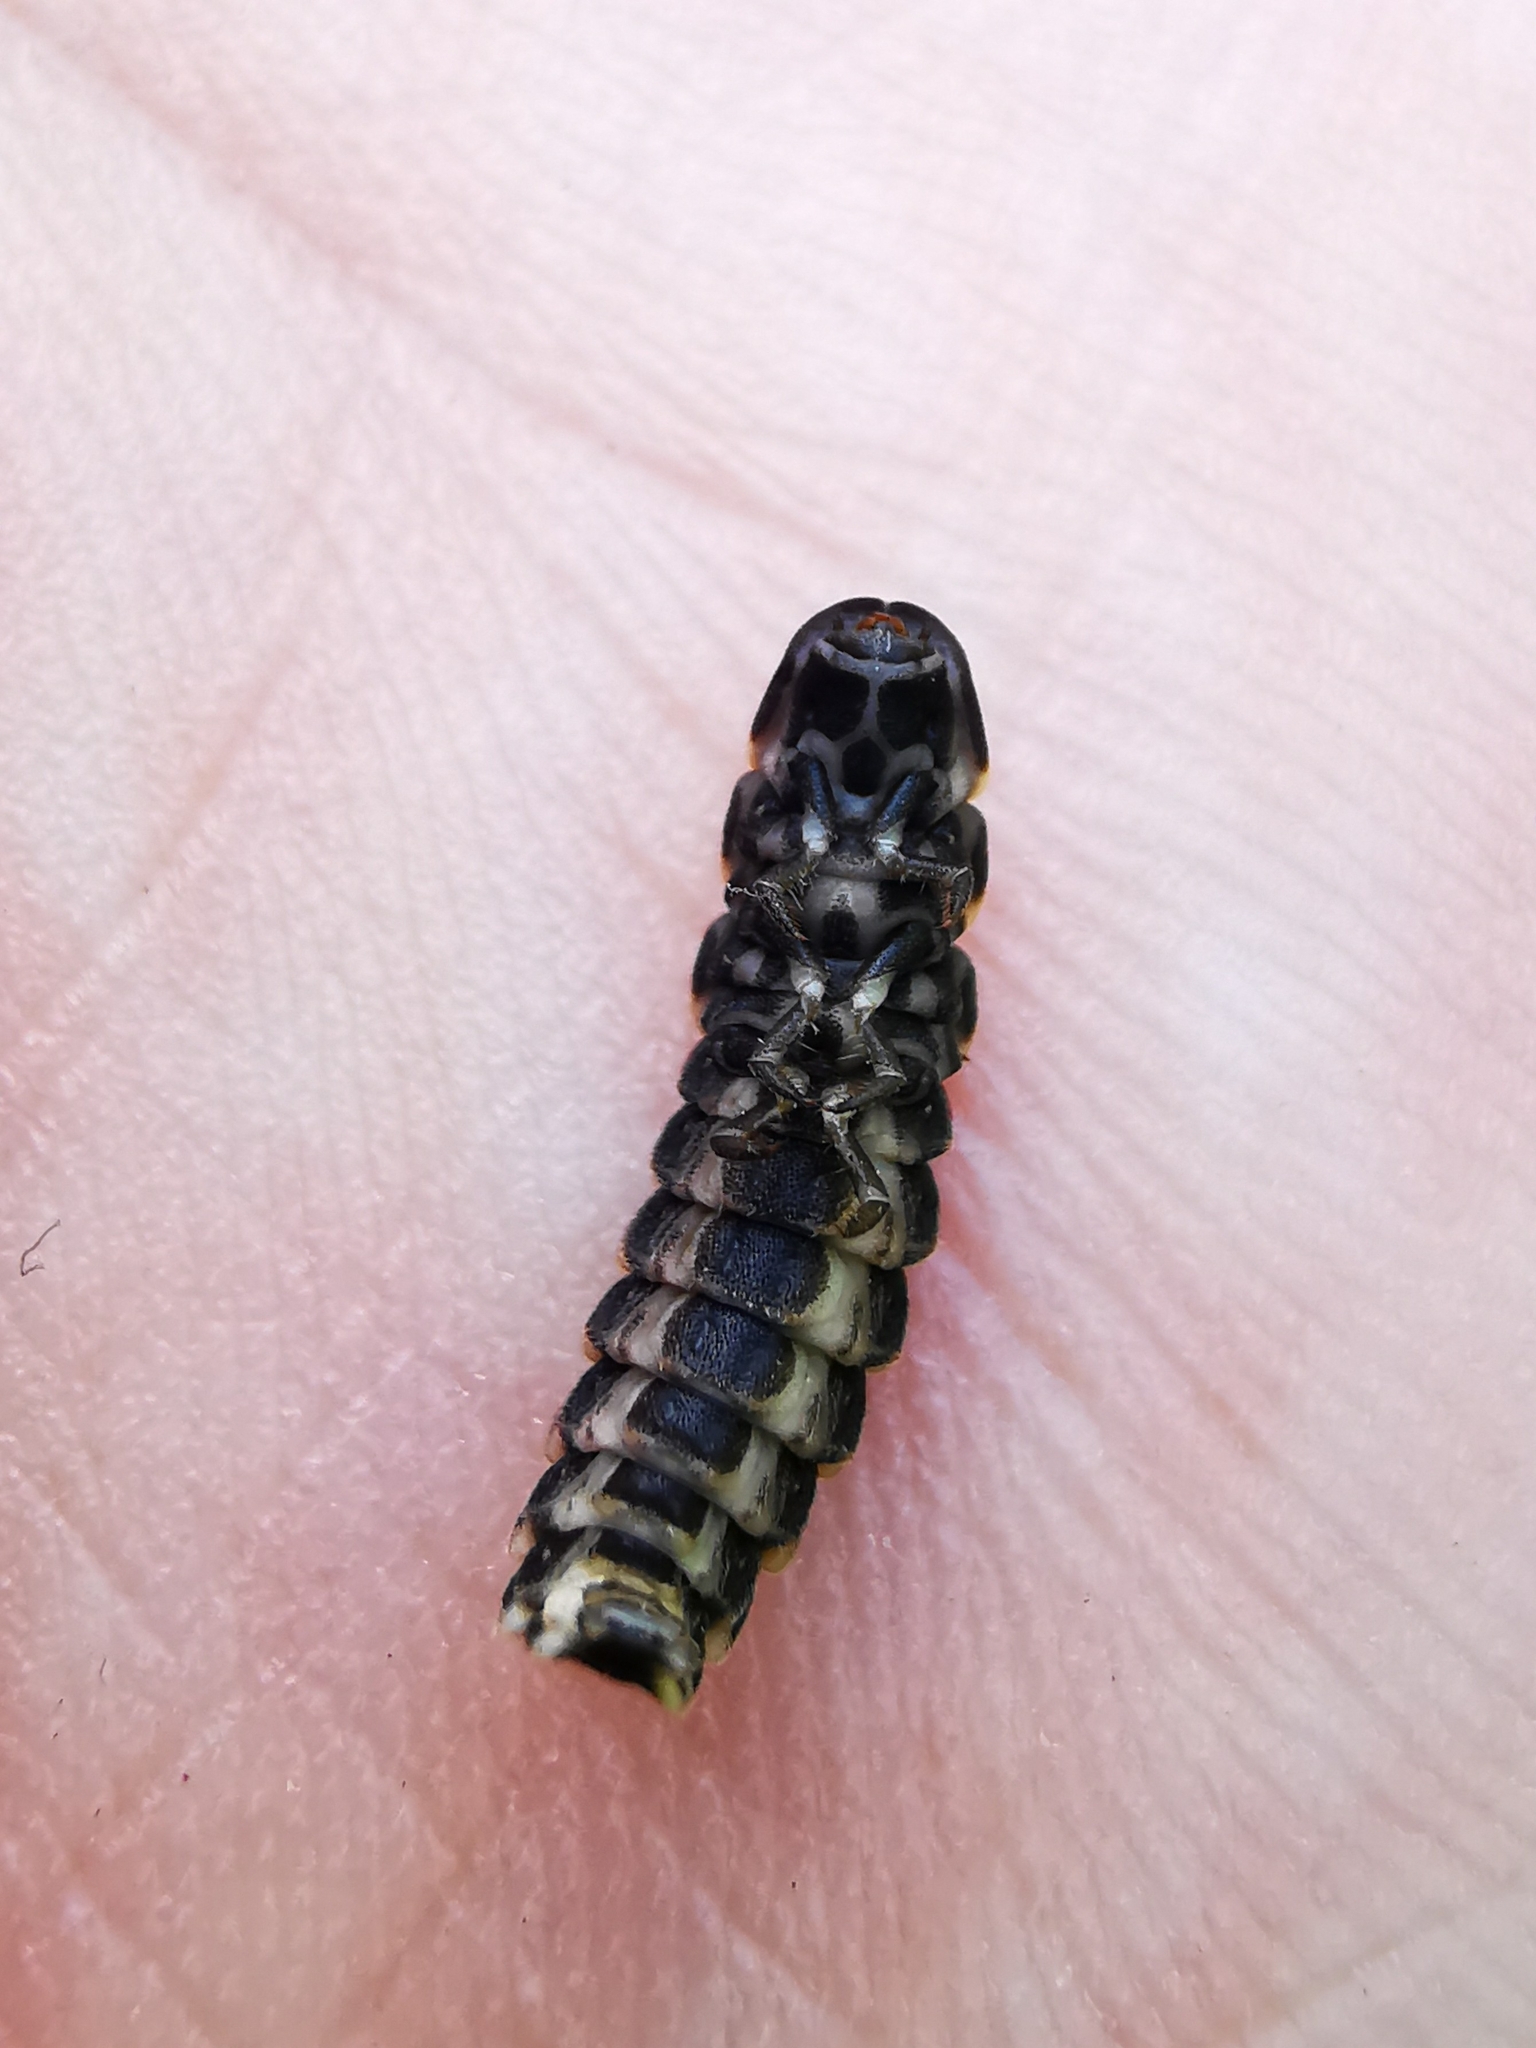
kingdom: Animalia
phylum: Arthropoda
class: Insecta
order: Coleoptera
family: Lampyridae
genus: Lampyris
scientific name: Lampyris noctiluca
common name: Glow-worm
